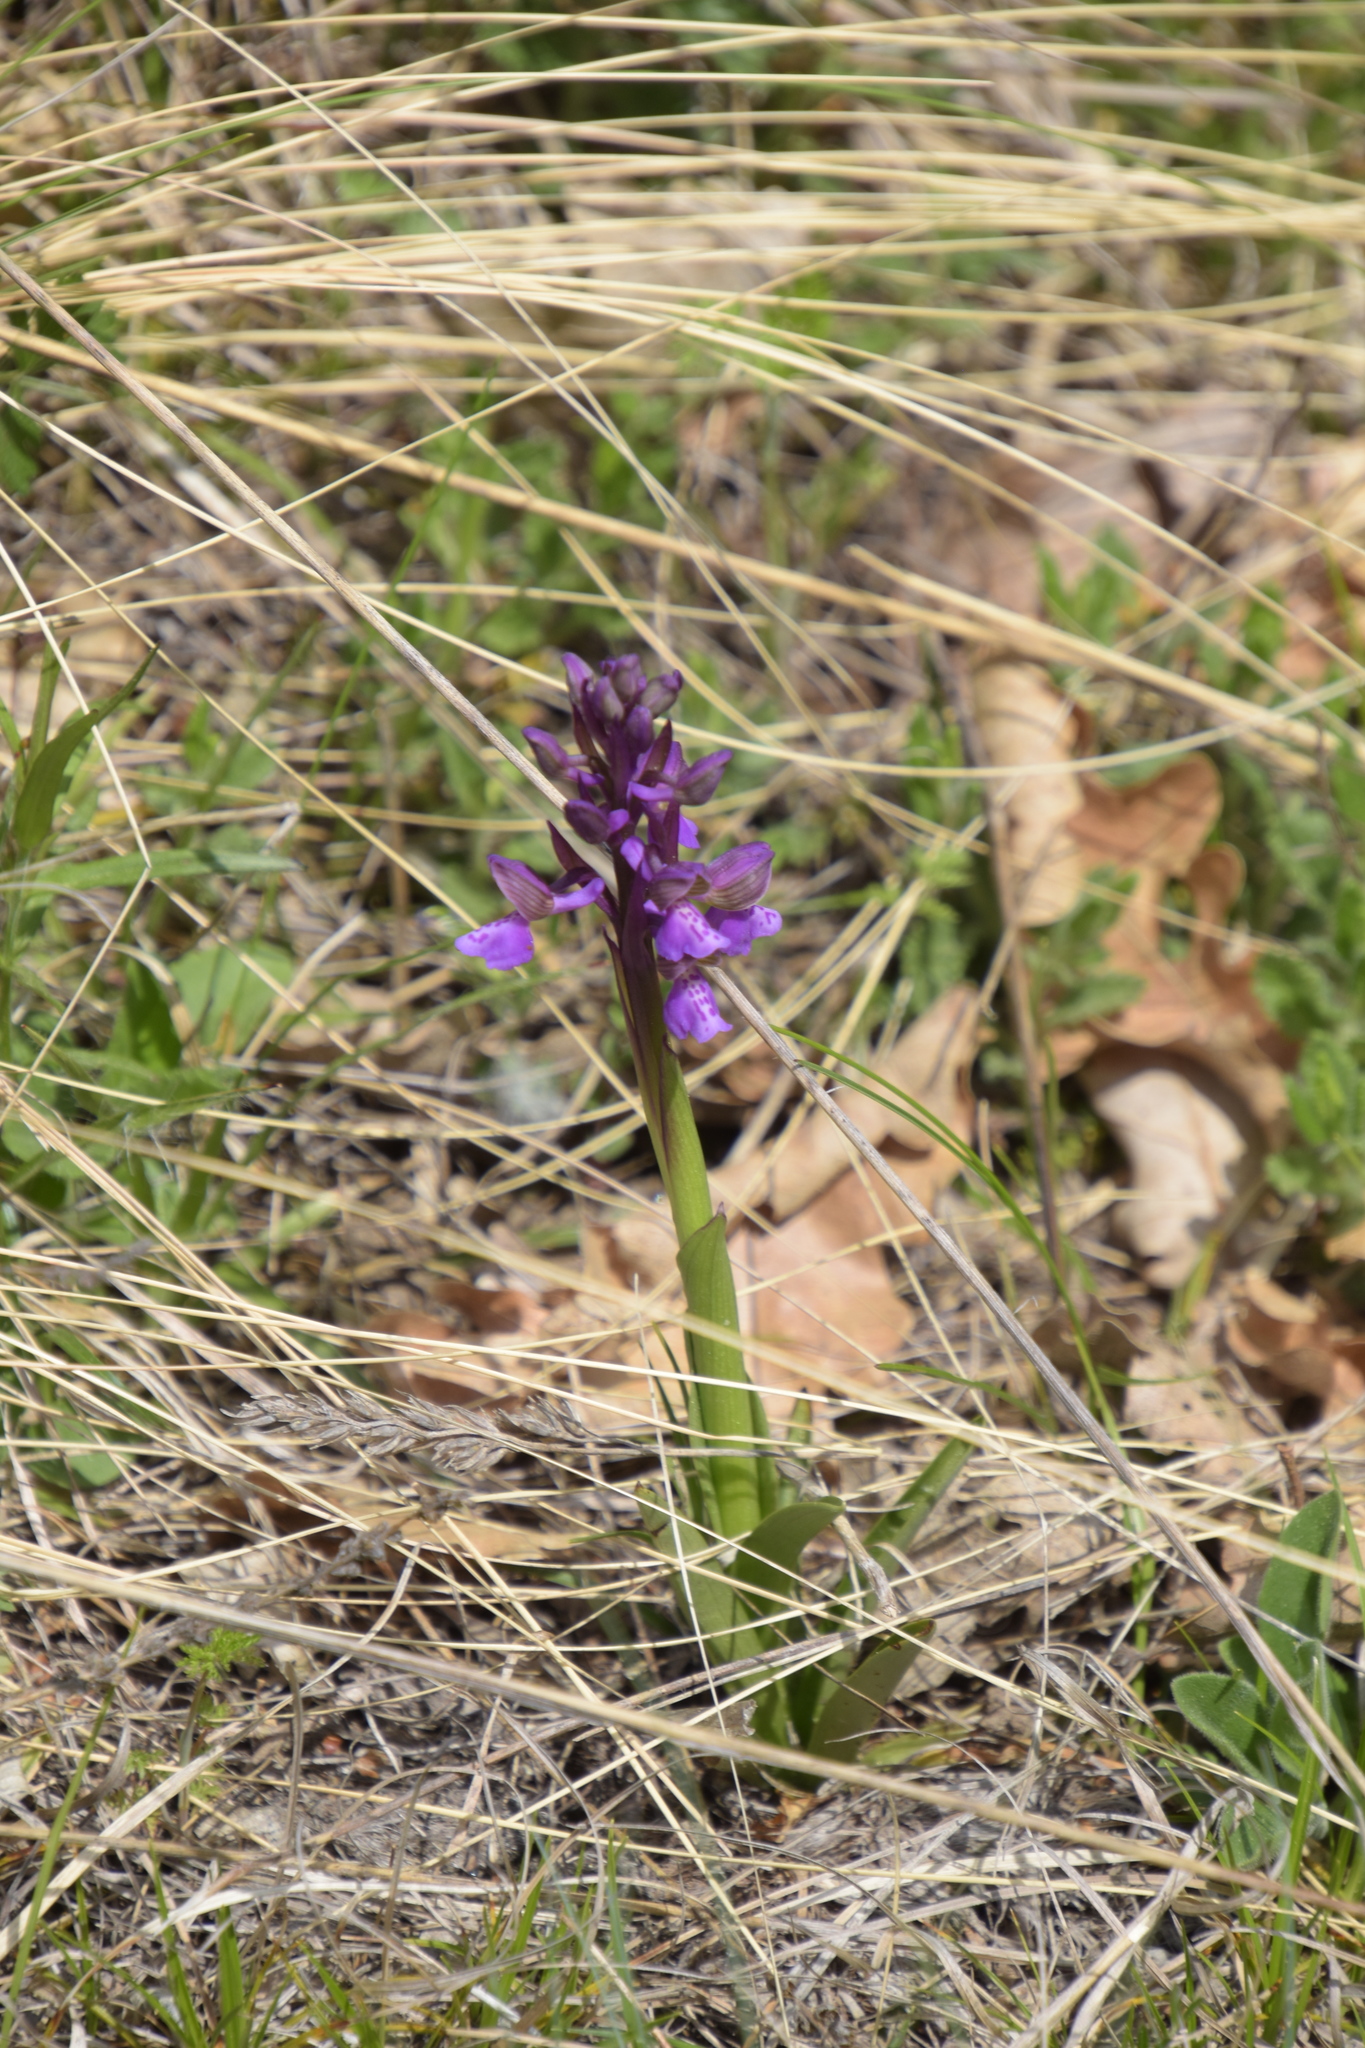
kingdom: Plantae
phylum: Tracheophyta
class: Liliopsida
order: Asparagales
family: Orchidaceae
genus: Anacamptis
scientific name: Anacamptis morio
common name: Green-winged orchid
